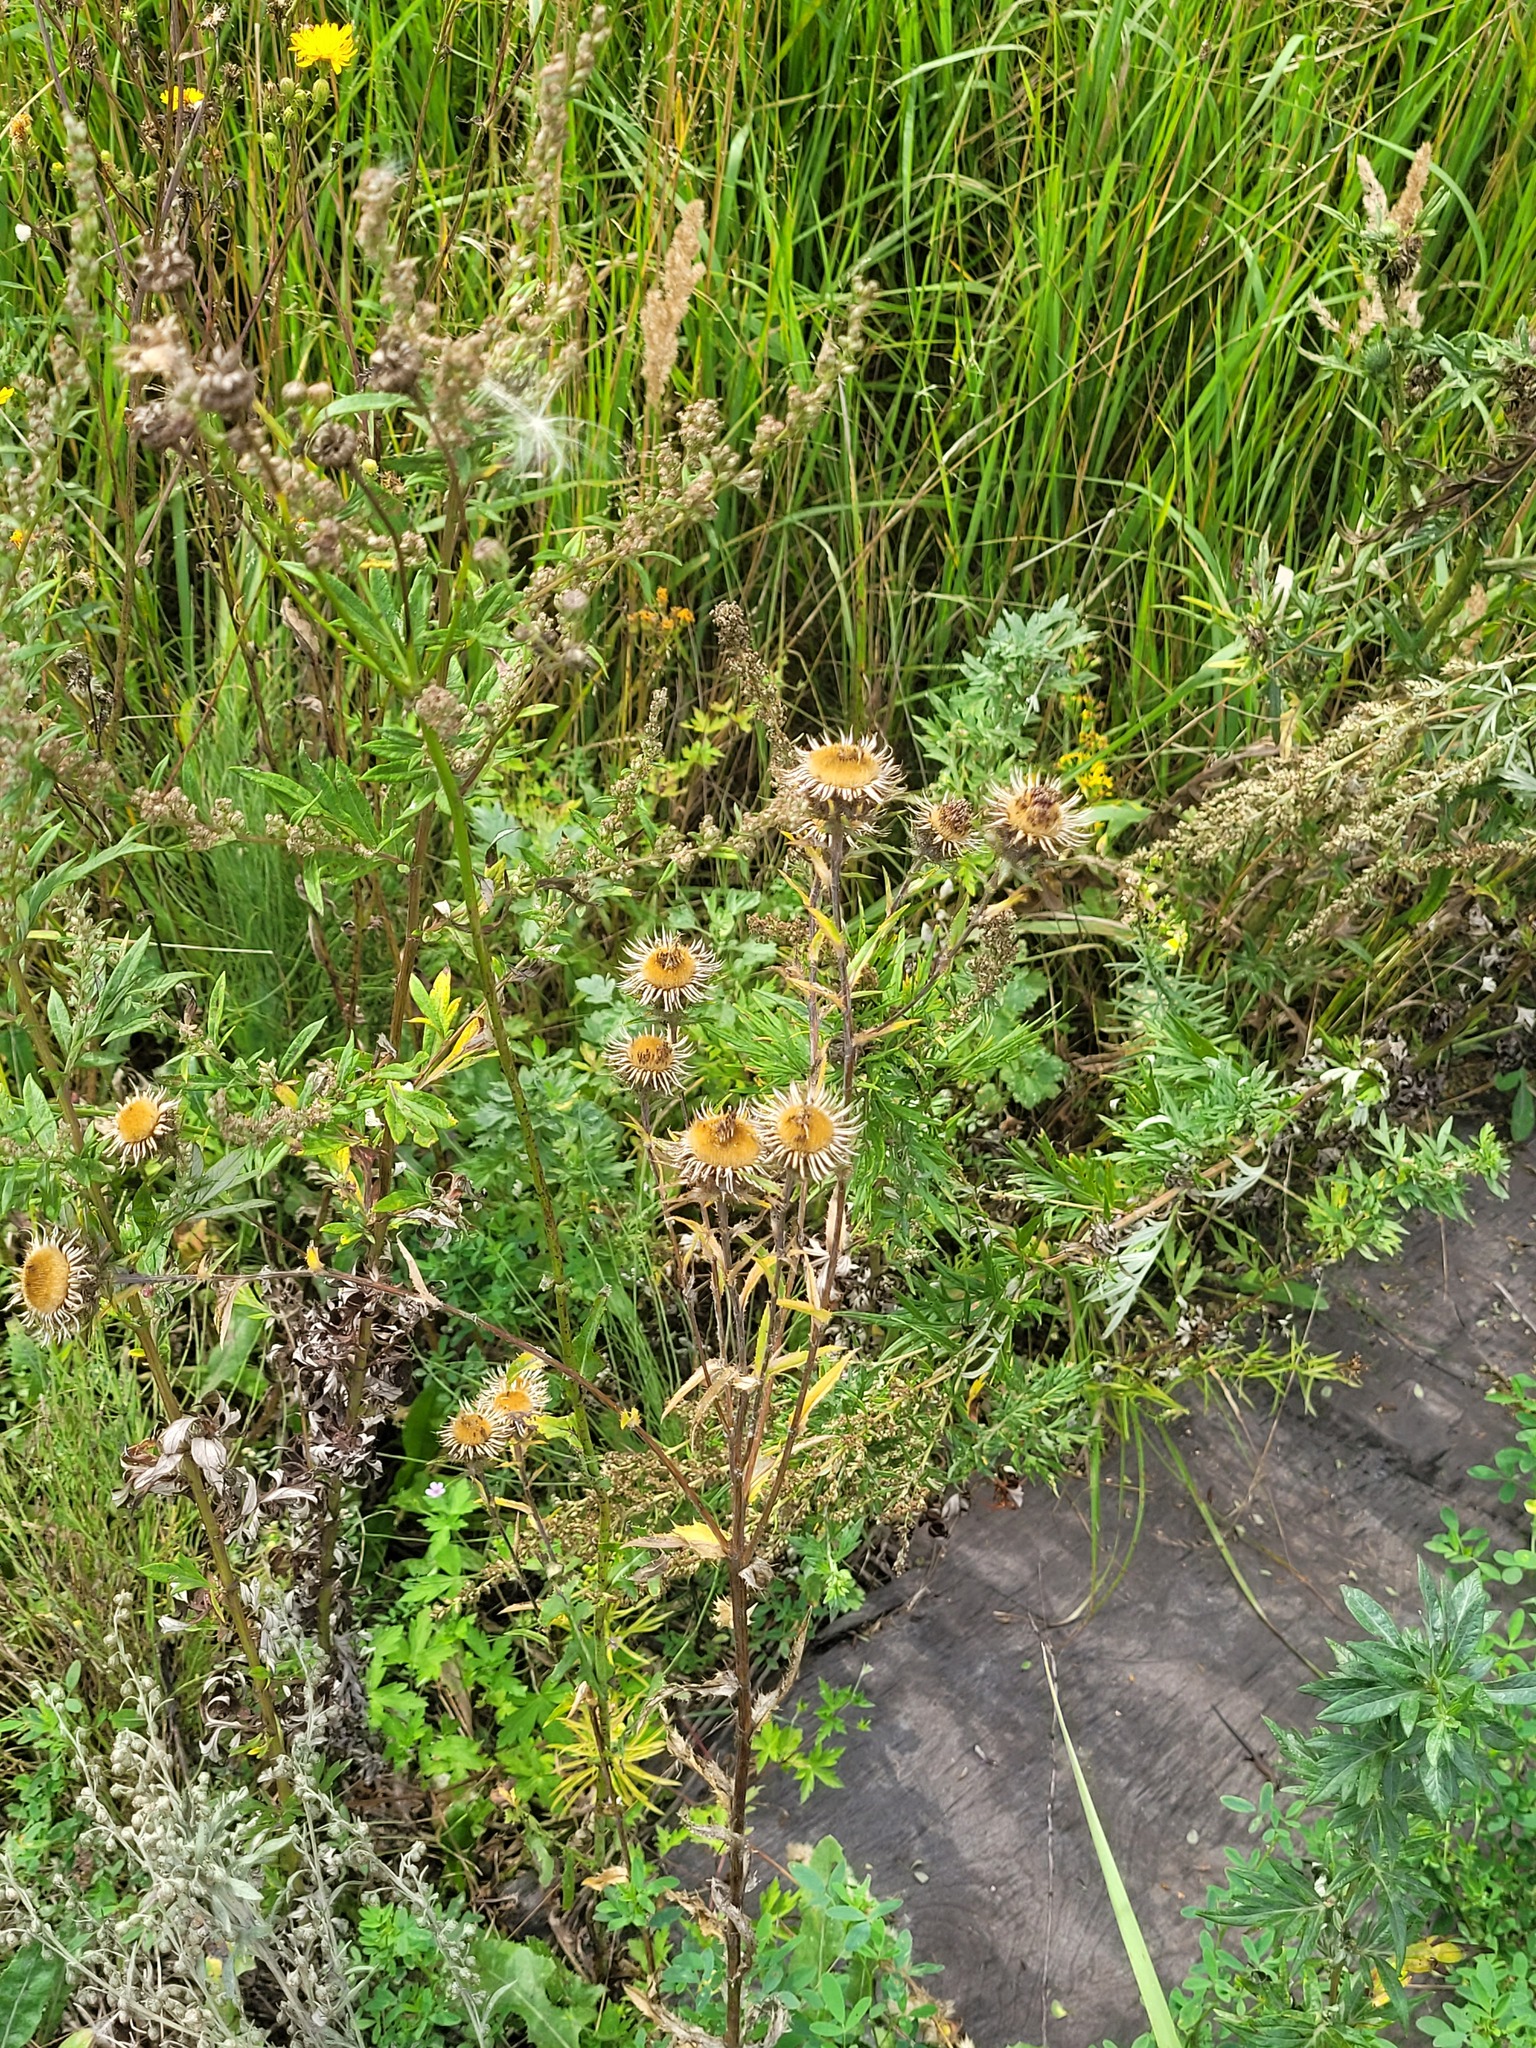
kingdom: Plantae
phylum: Tracheophyta
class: Magnoliopsida
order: Asterales
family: Asteraceae
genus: Carlina
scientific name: Carlina biebersteinii
